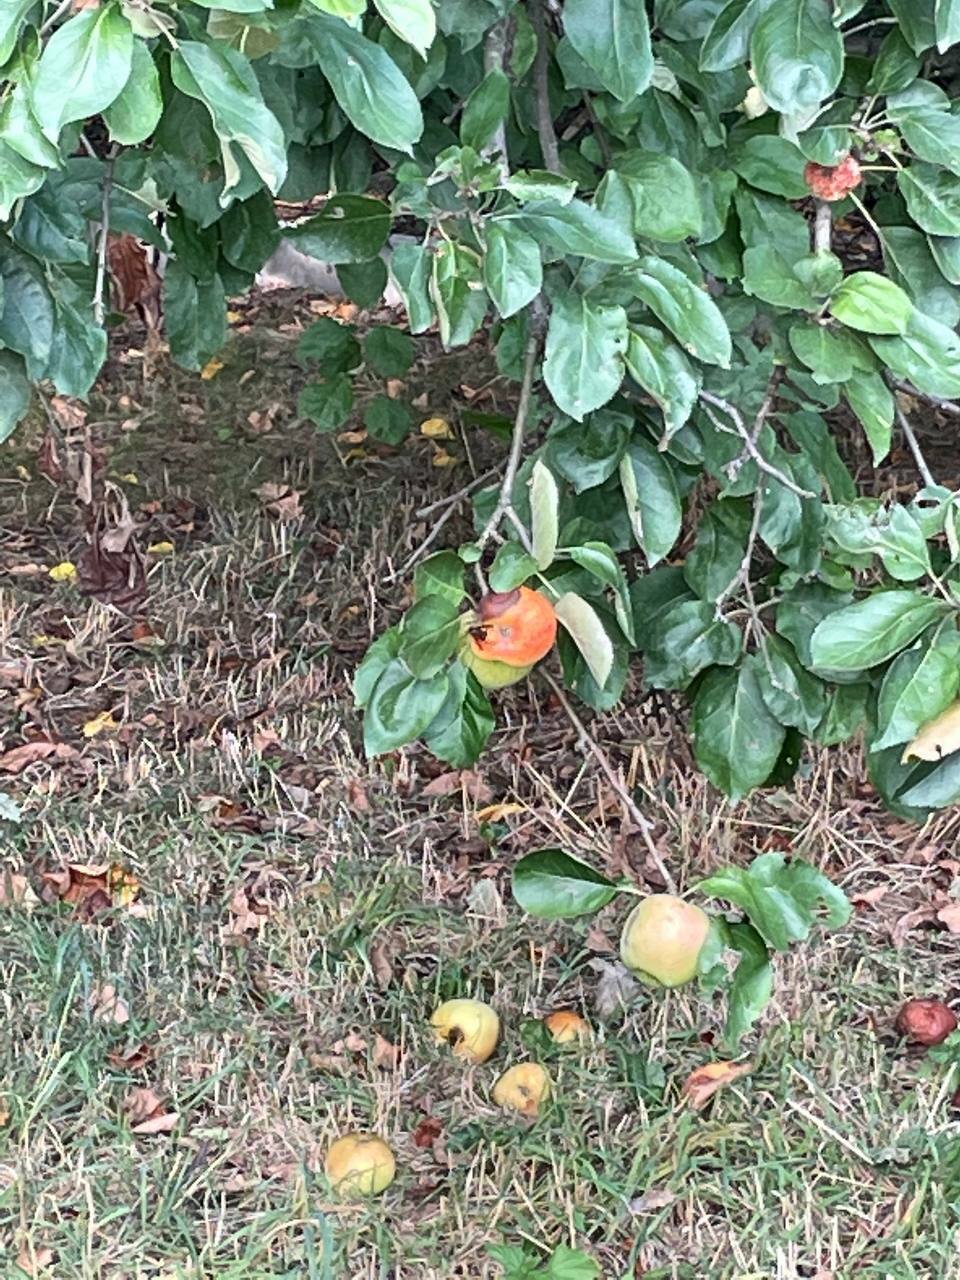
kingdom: Animalia
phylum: Arthropoda
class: Insecta
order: Hymenoptera
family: Vespidae
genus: Vespa
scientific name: Vespa crabro
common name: Hornet
